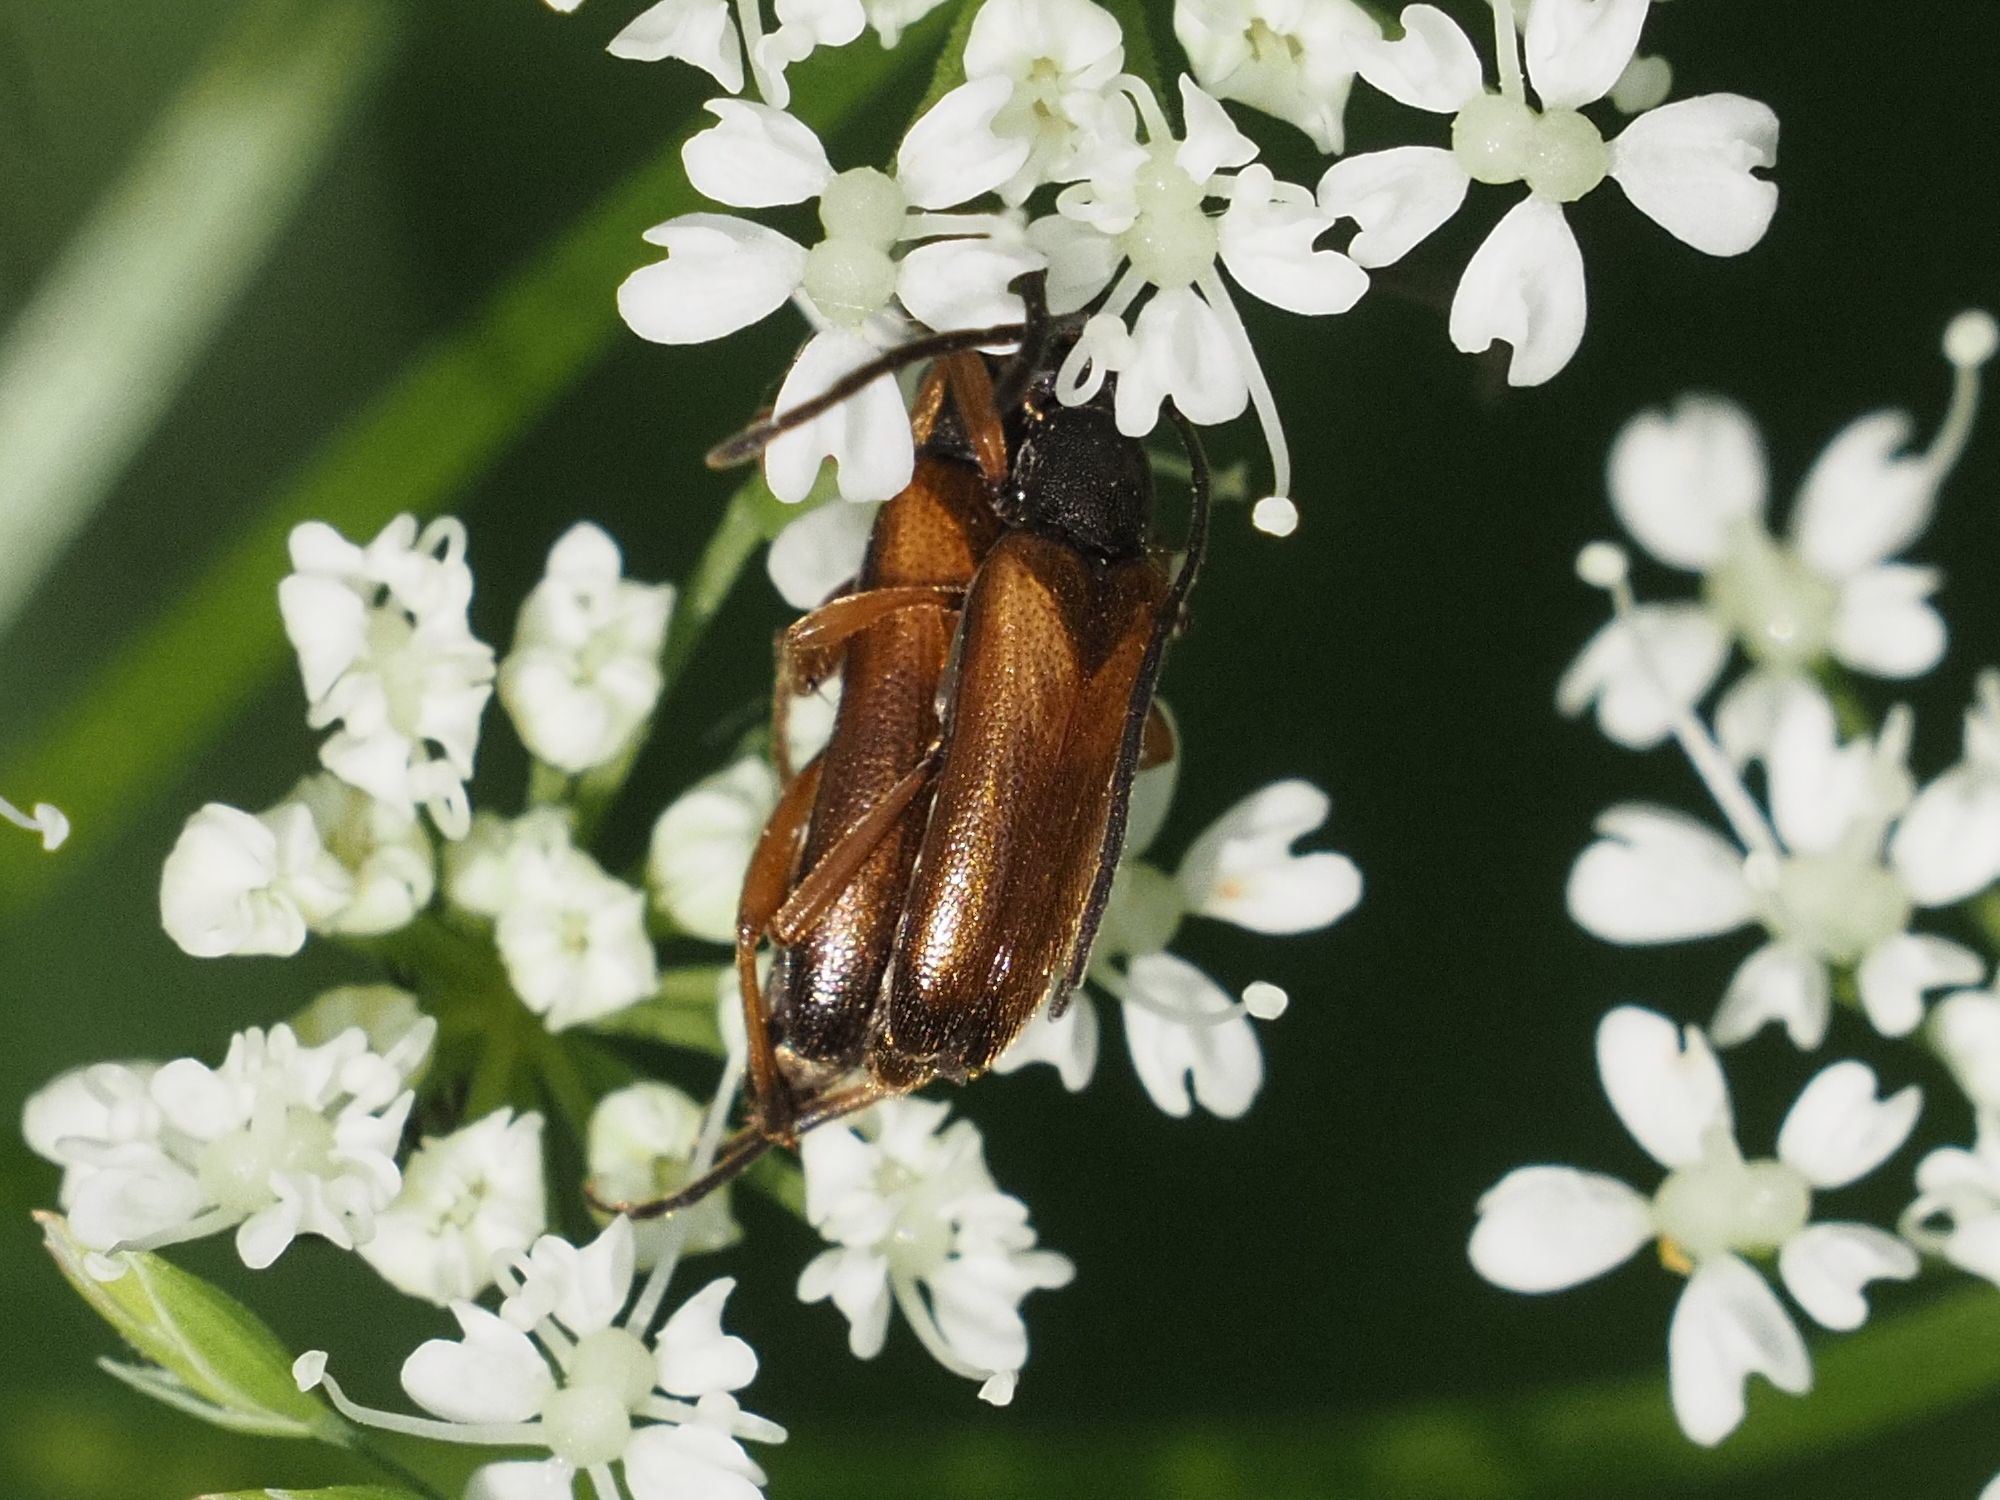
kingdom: Animalia
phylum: Arthropoda
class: Insecta
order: Coleoptera
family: Cerambycidae
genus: Alosterna
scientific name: Alosterna tabacicolor
